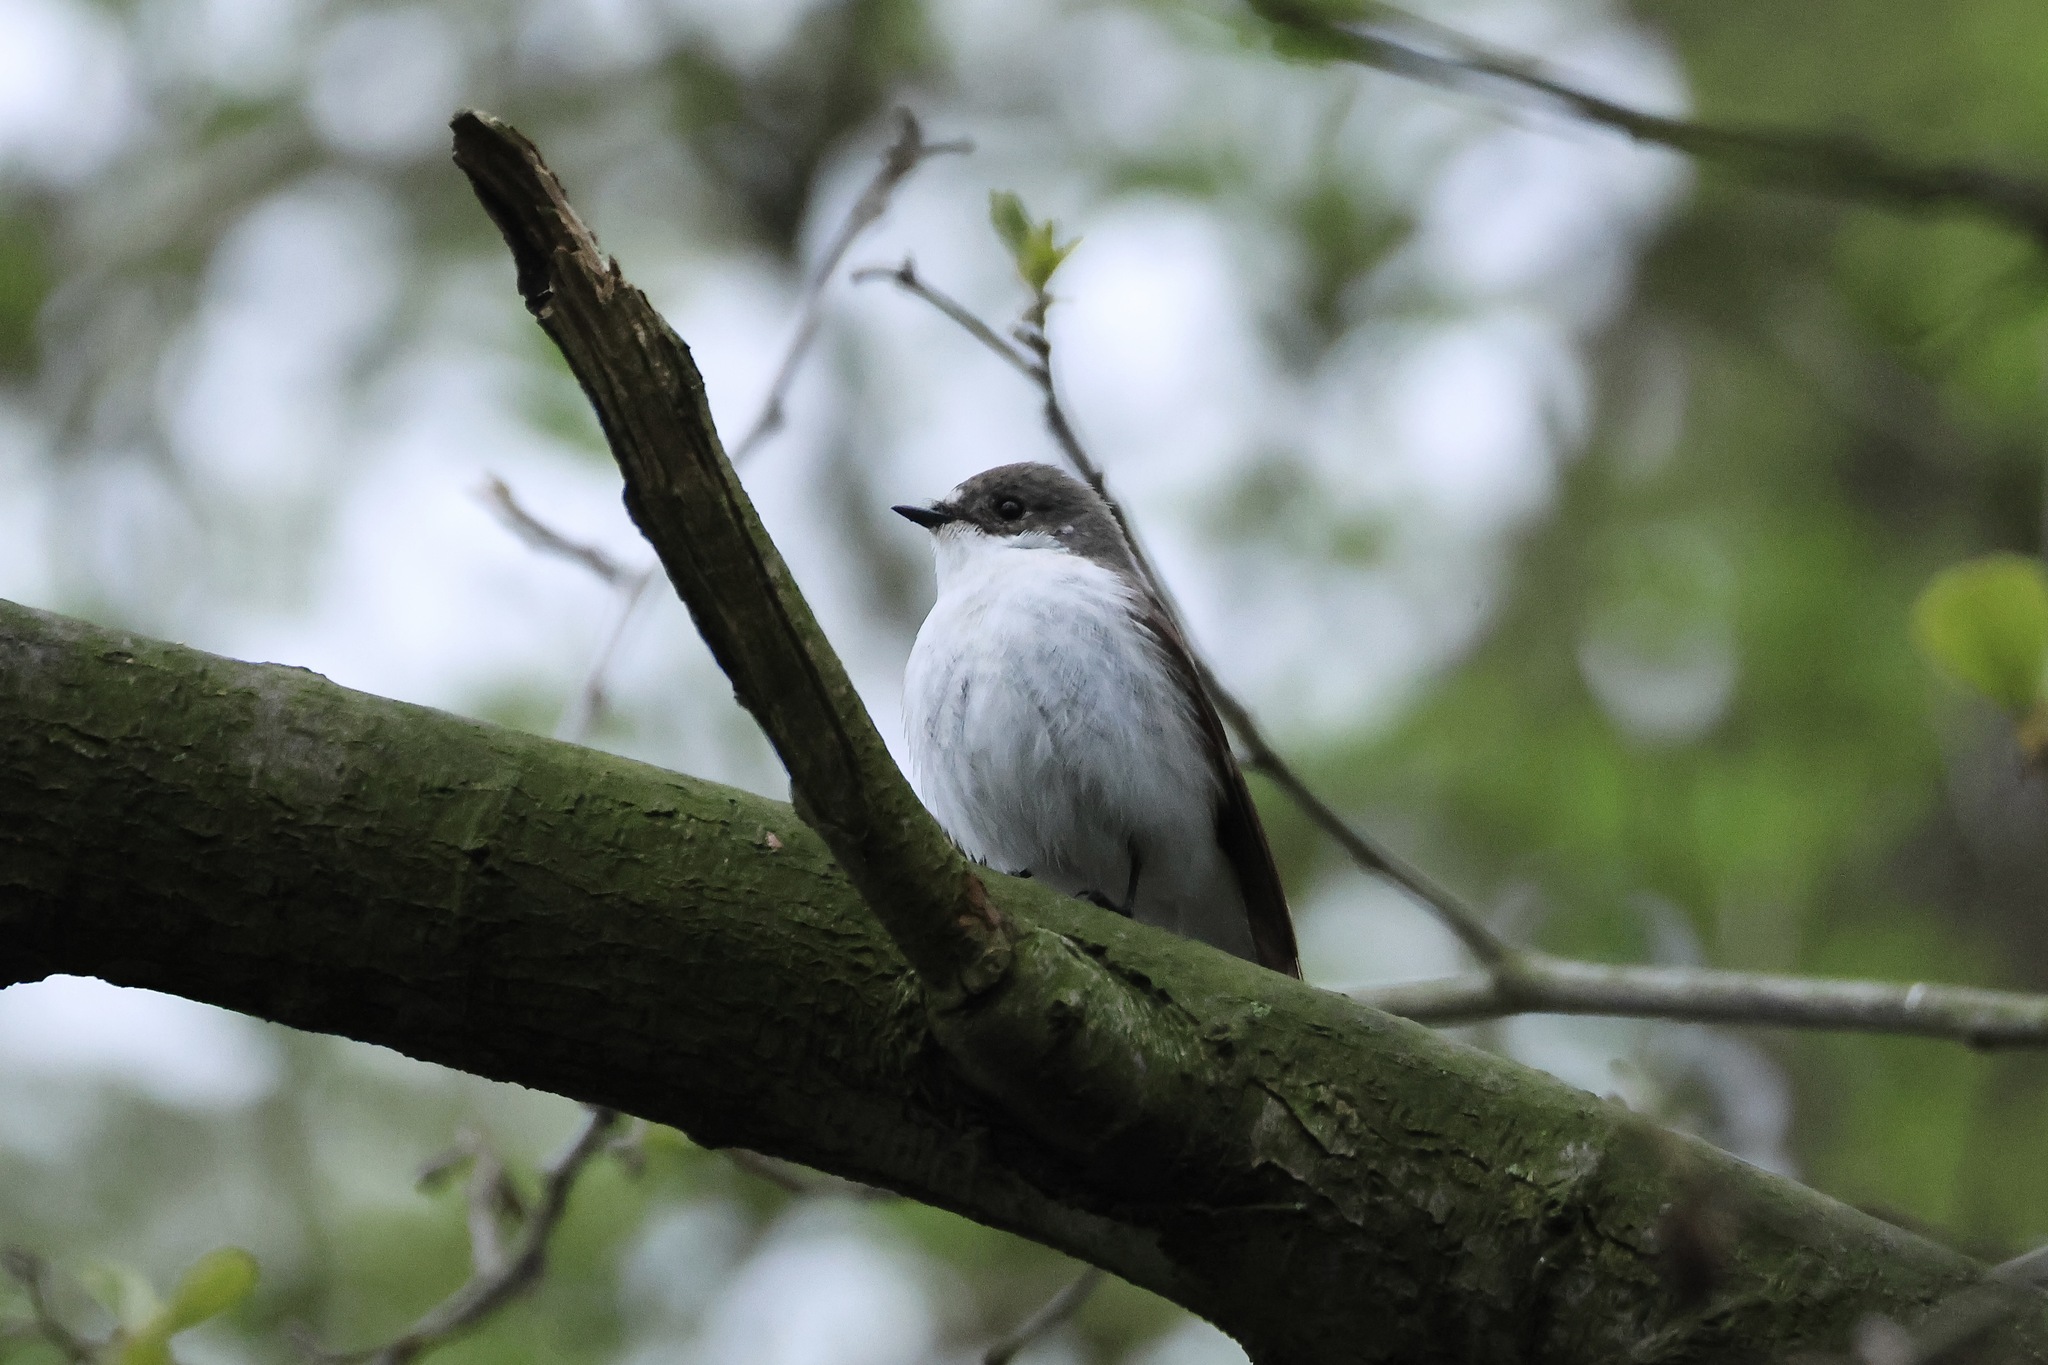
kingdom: Animalia
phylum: Chordata
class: Aves
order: Passeriformes
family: Muscicapidae
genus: Ficedula
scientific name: Ficedula hypoleuca
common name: European pied flycatcher
